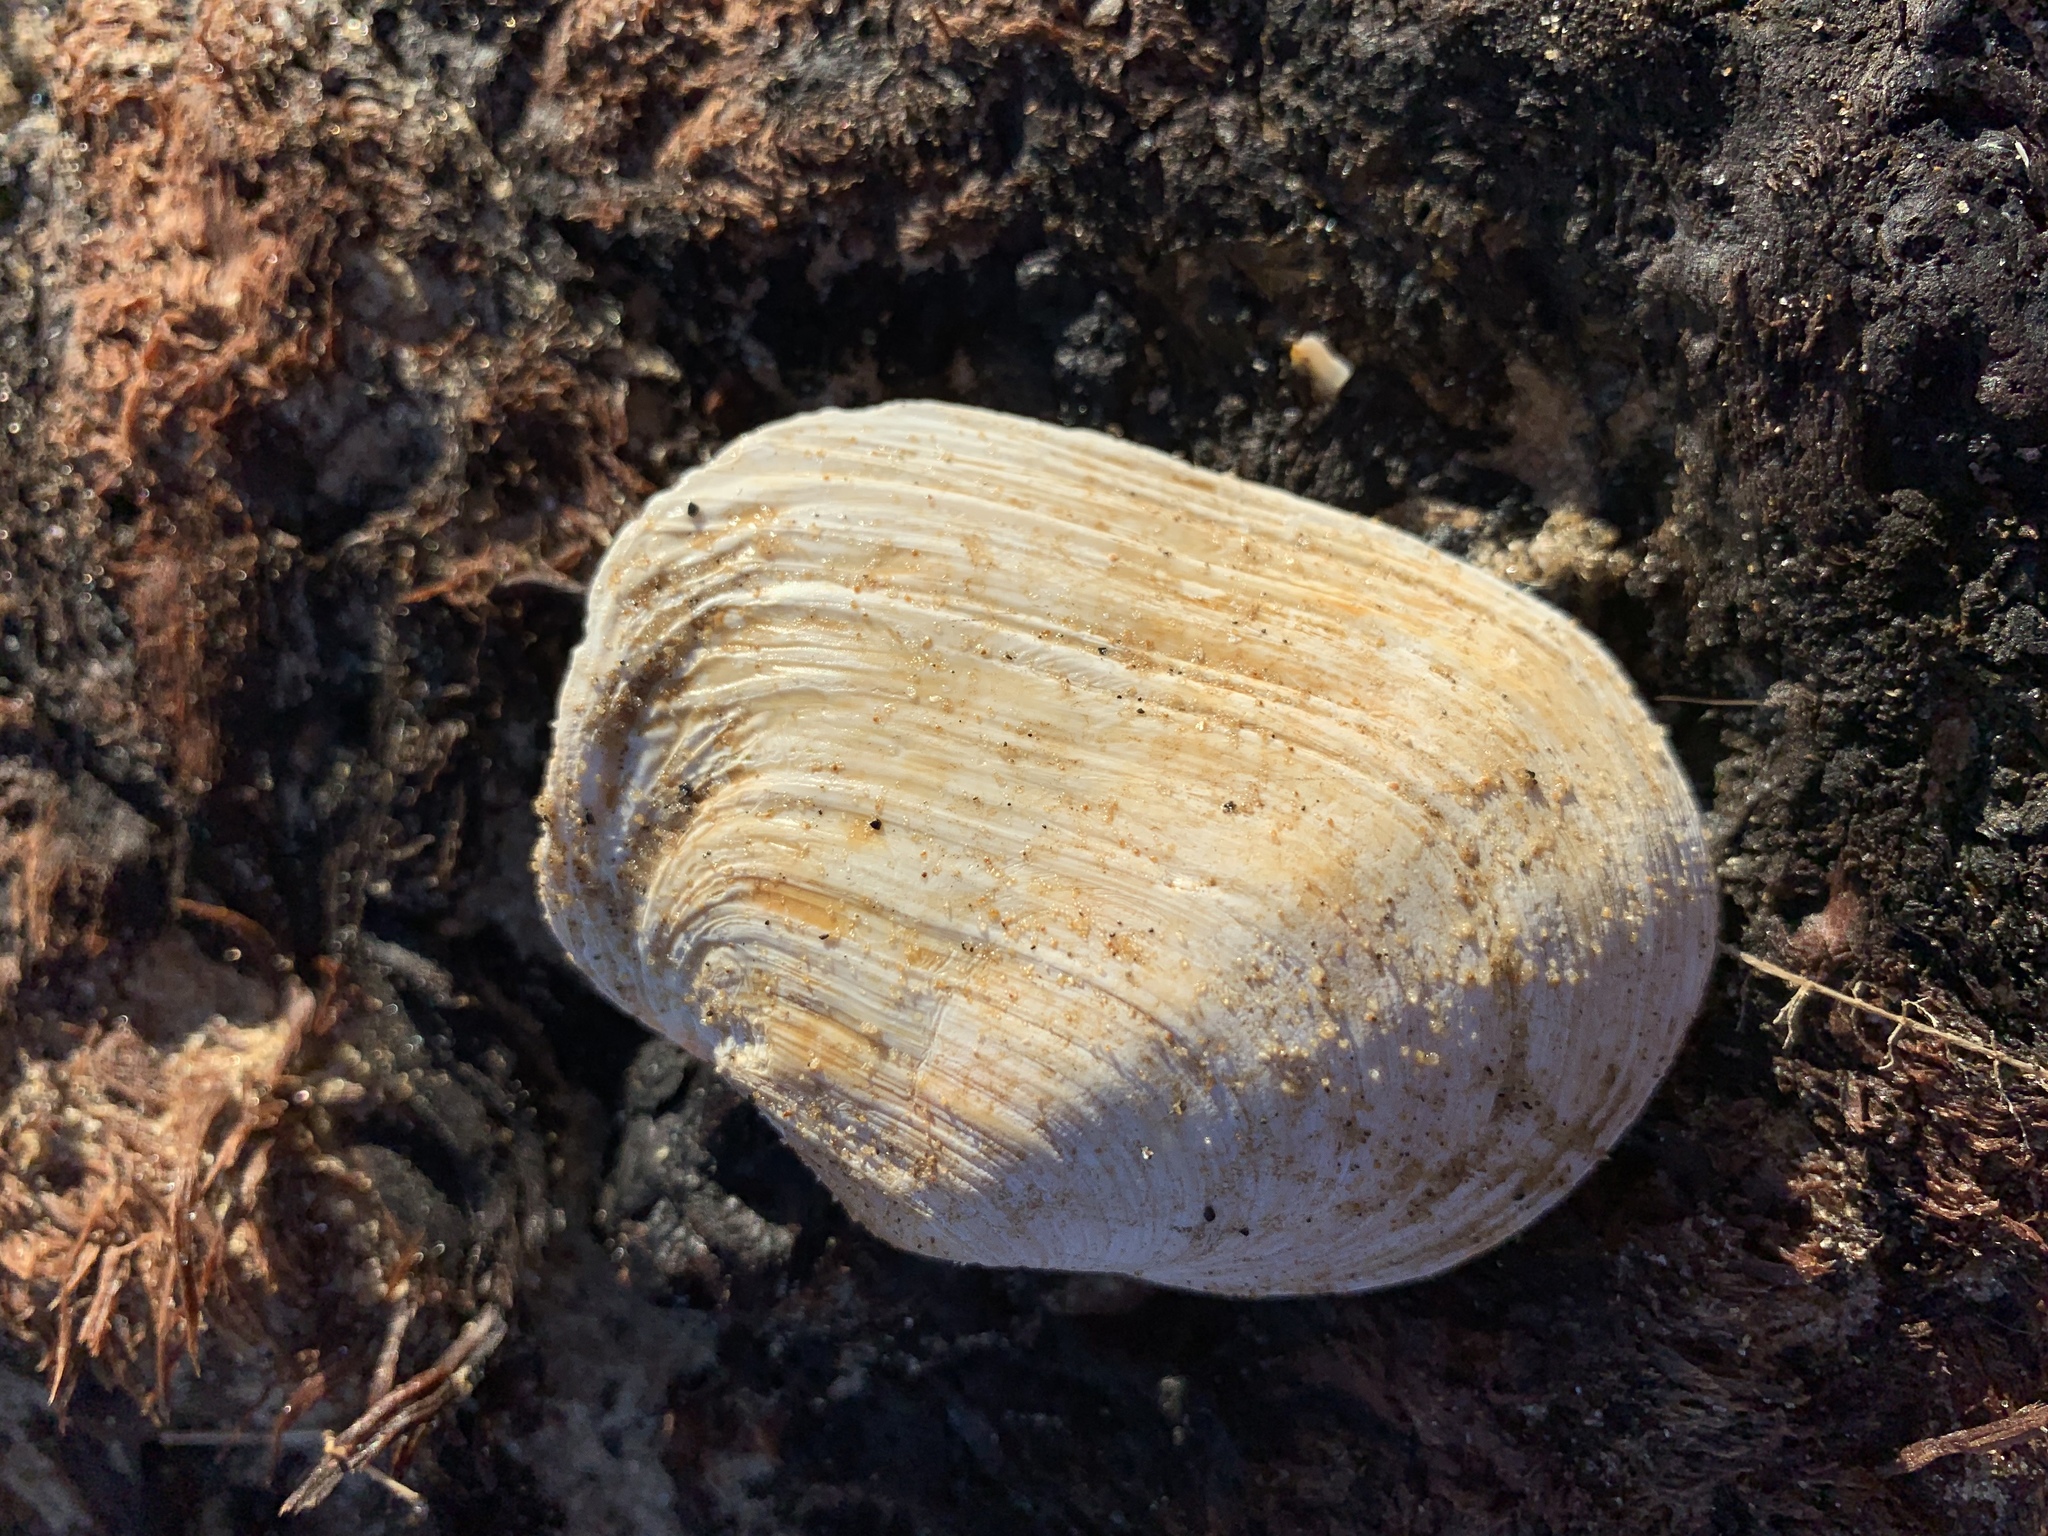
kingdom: Animalia
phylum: Mollusca
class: Bivalvia
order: Myida
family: Myidae
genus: Mya
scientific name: Mya truncata
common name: Blunt gaper
